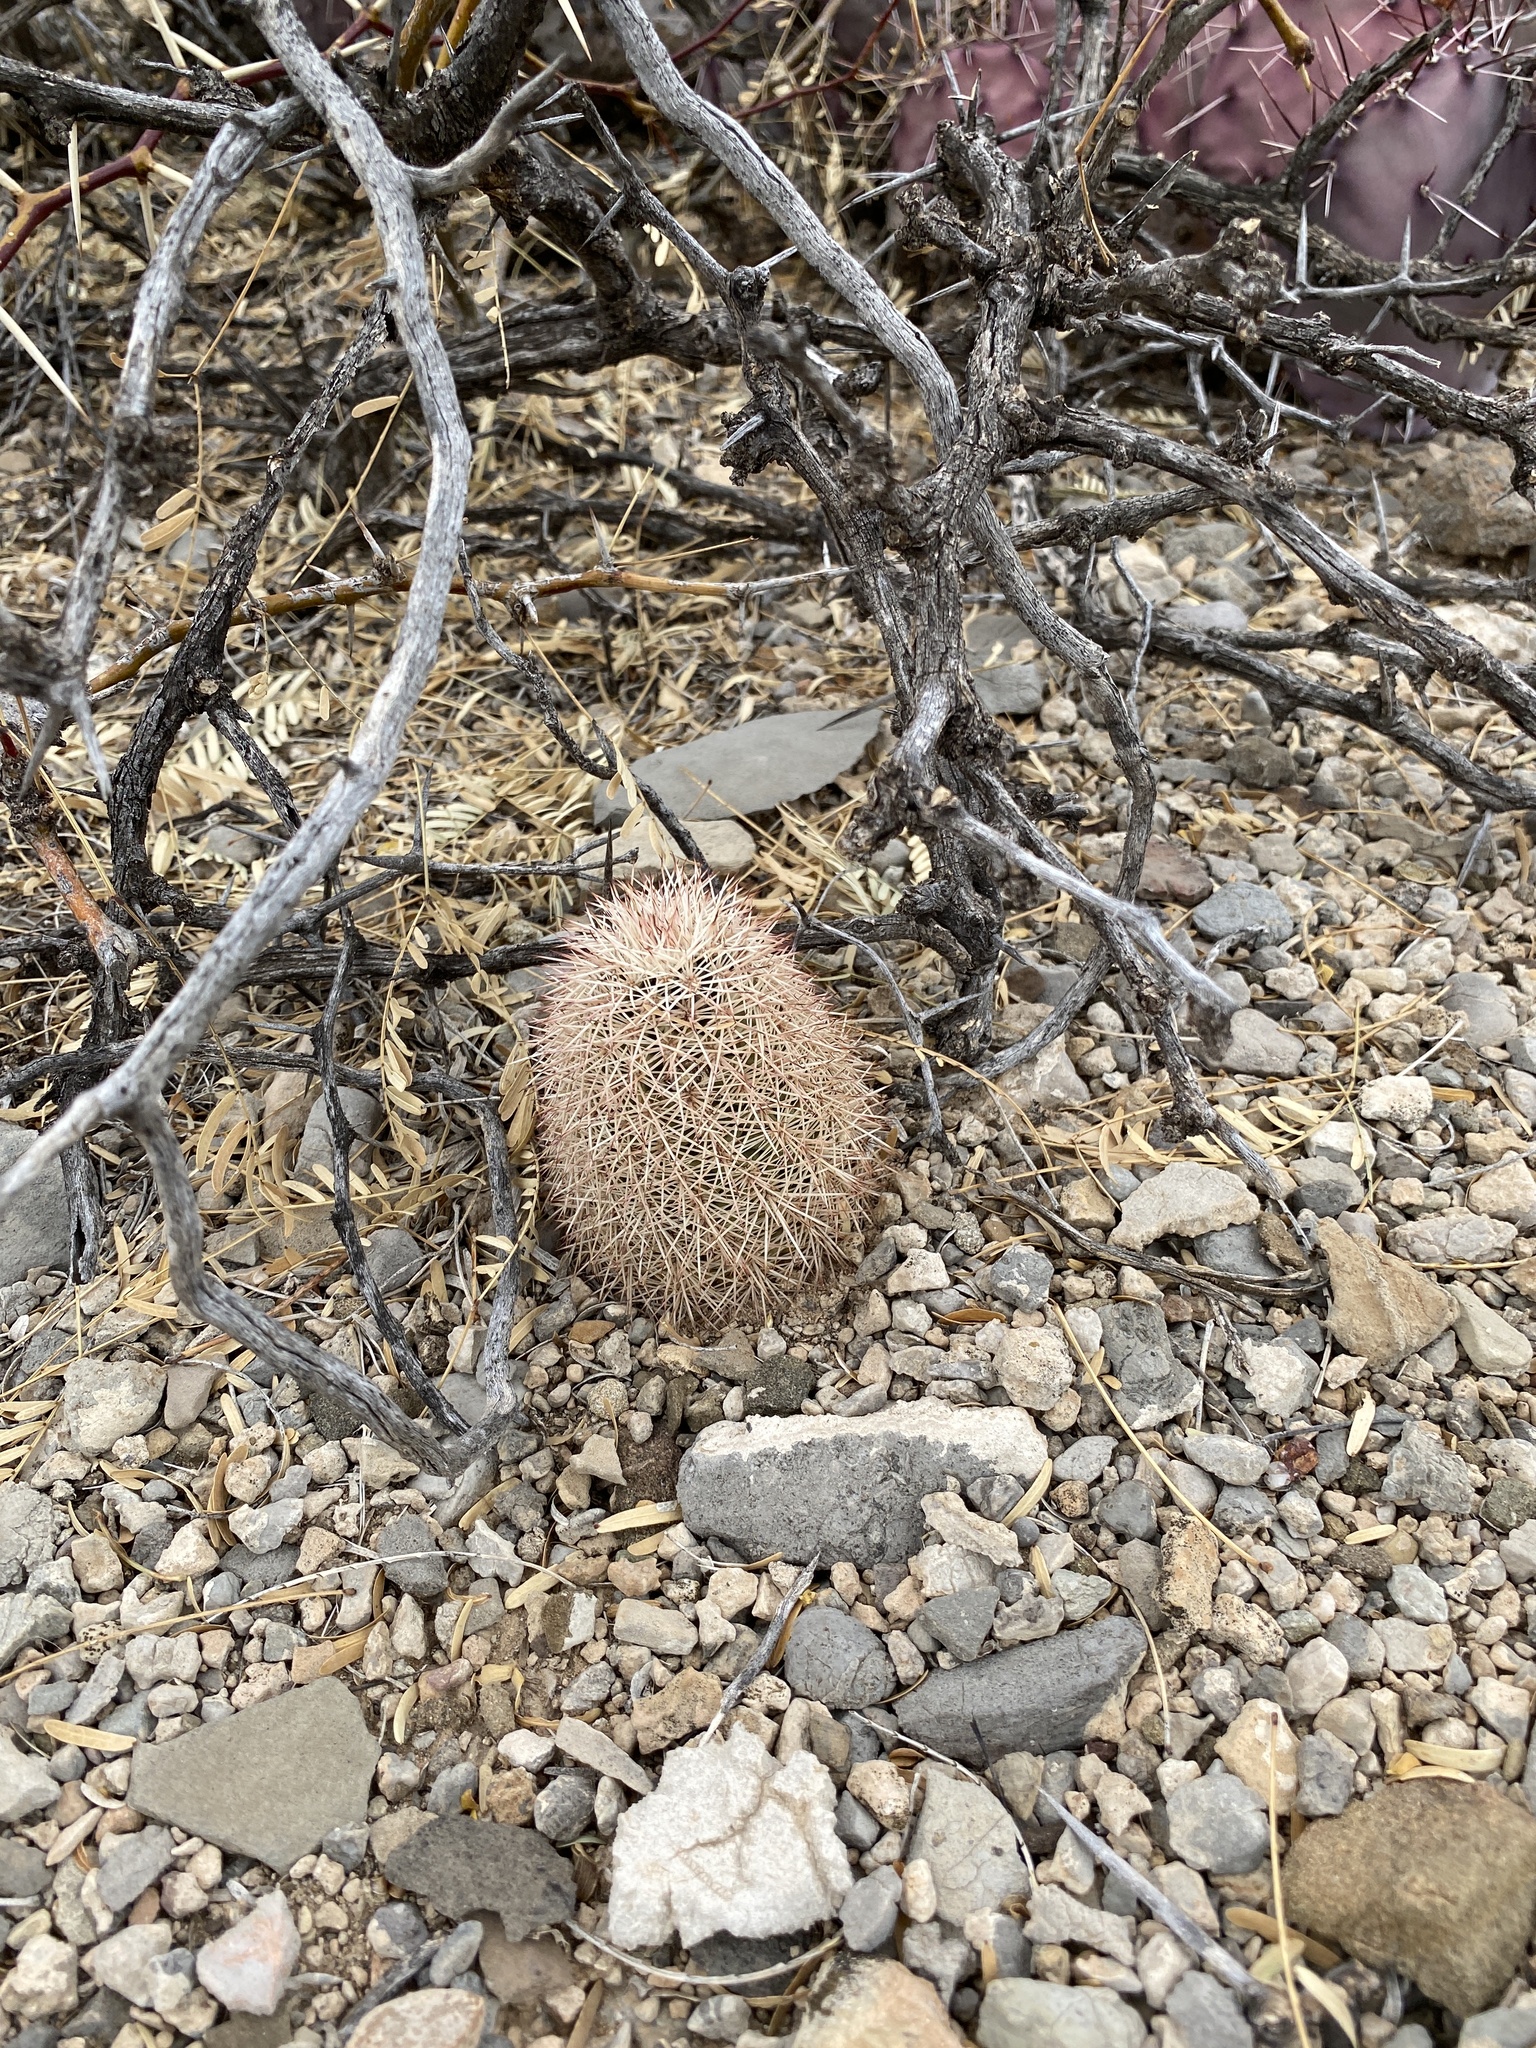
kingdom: Plantae
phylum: Tracheophyta
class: Magnoliopsida
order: Caryophyllales
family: Cactaceae
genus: Echinocereus
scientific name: Echinocereus dasyacanthus
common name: Spiny hedgehog cactus
